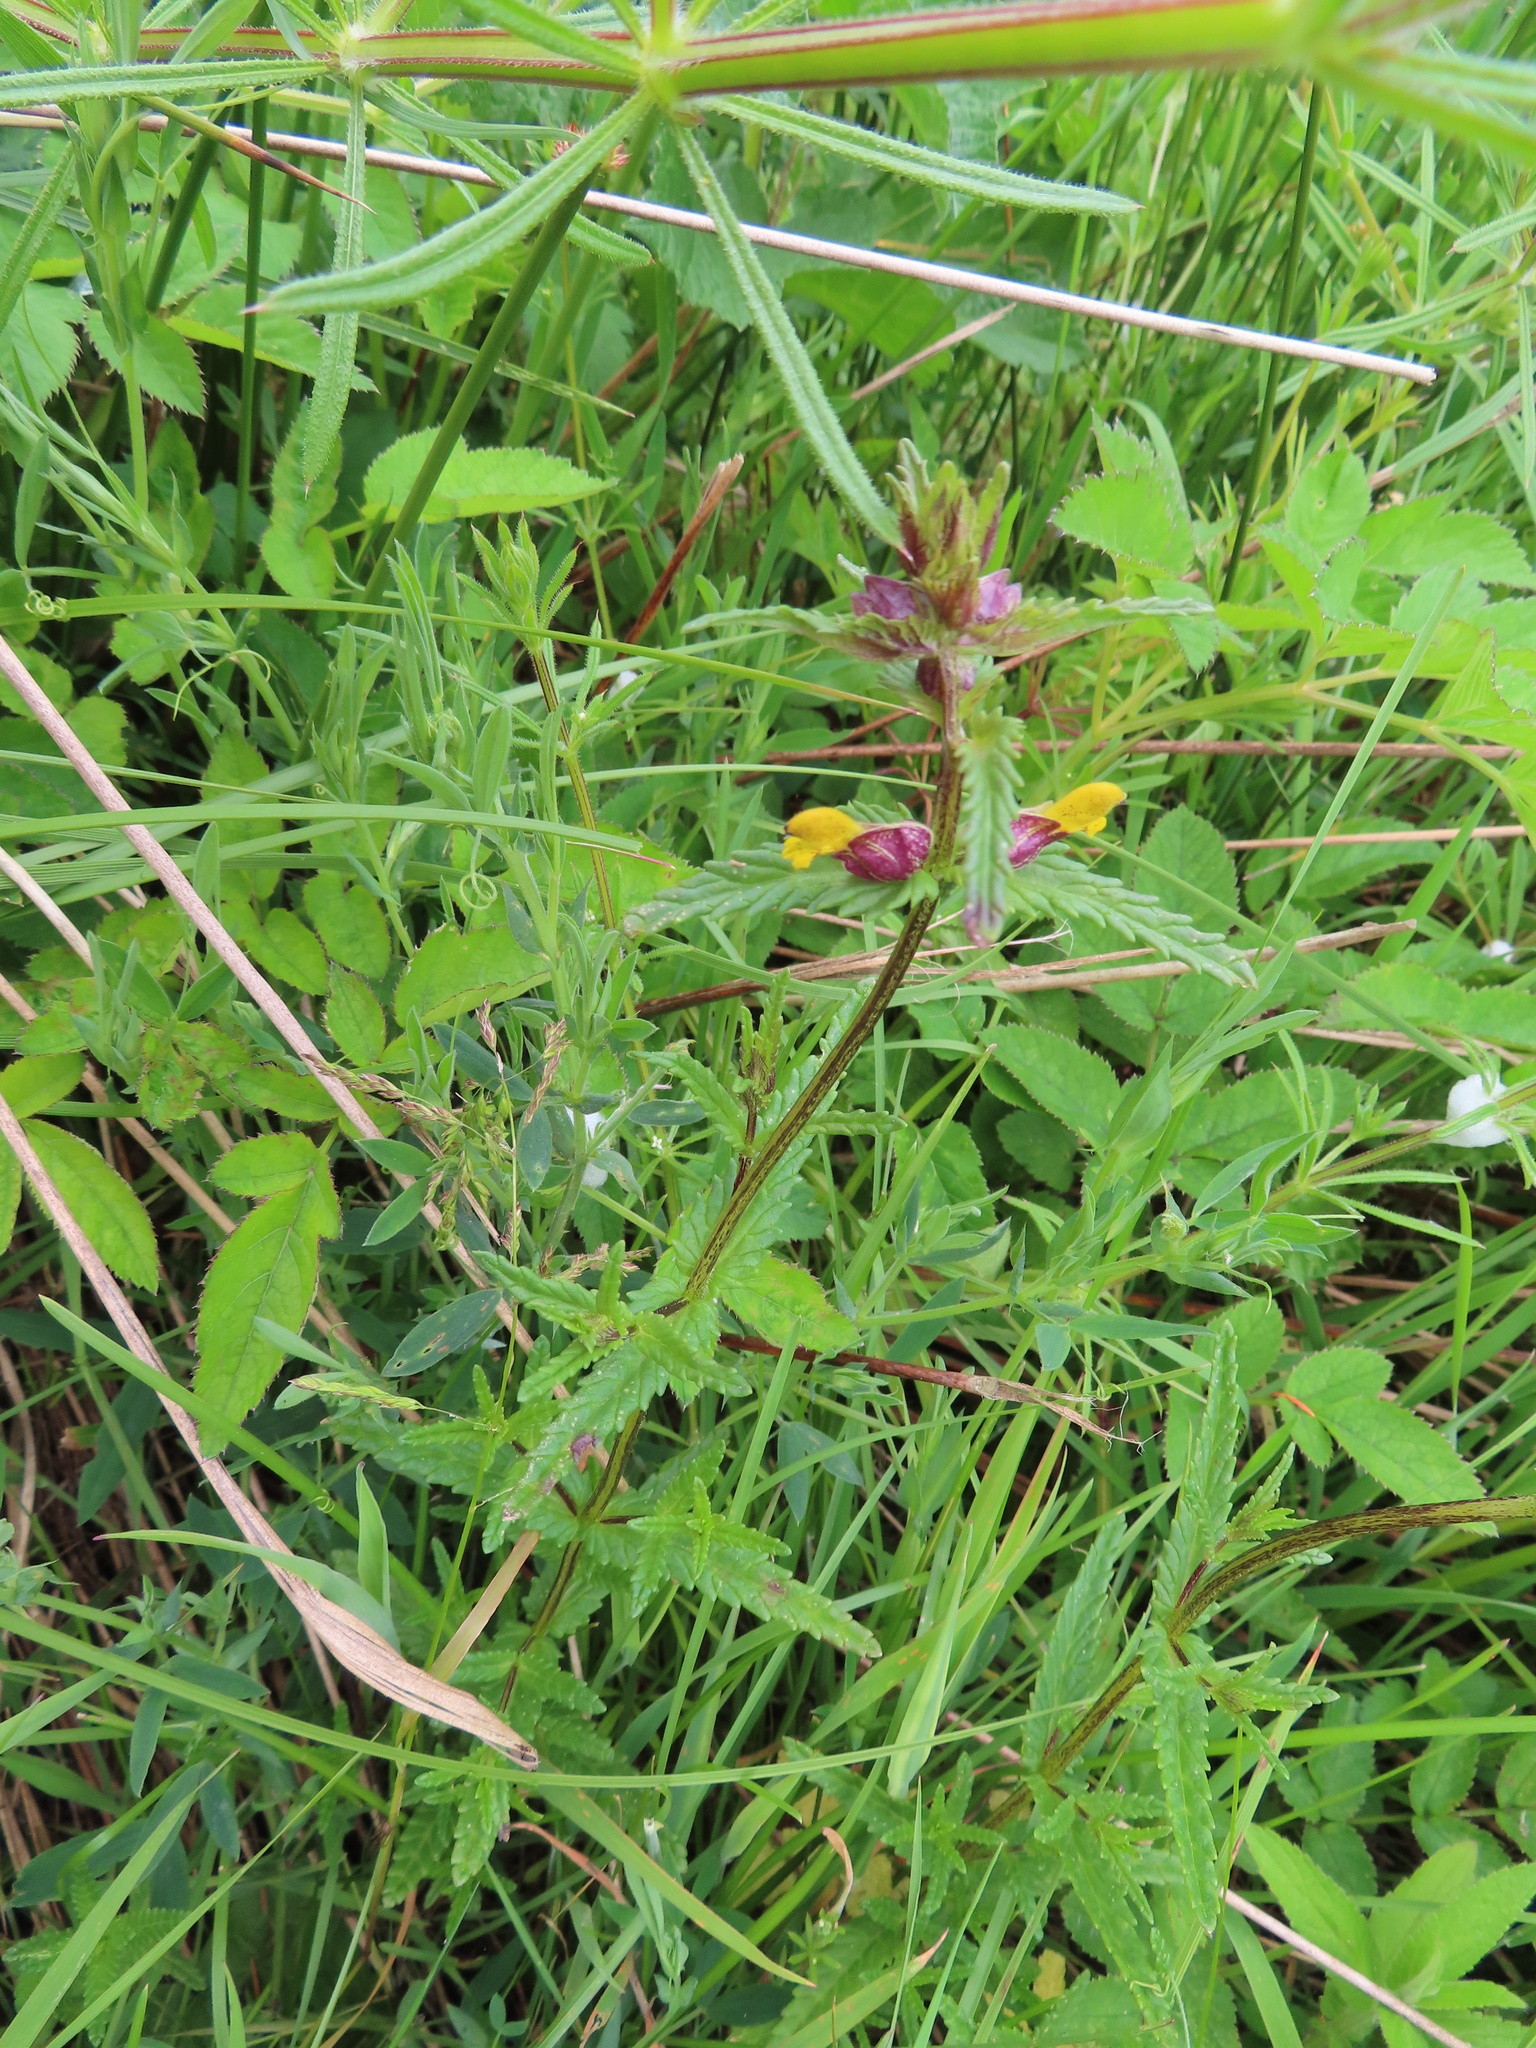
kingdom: Plantae
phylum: Tracheophyta
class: Magnoliopsida
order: Lamiales
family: Orobanchaceae
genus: Rhinanthus
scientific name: Rhinanthus minor
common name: Yellow-rattle
